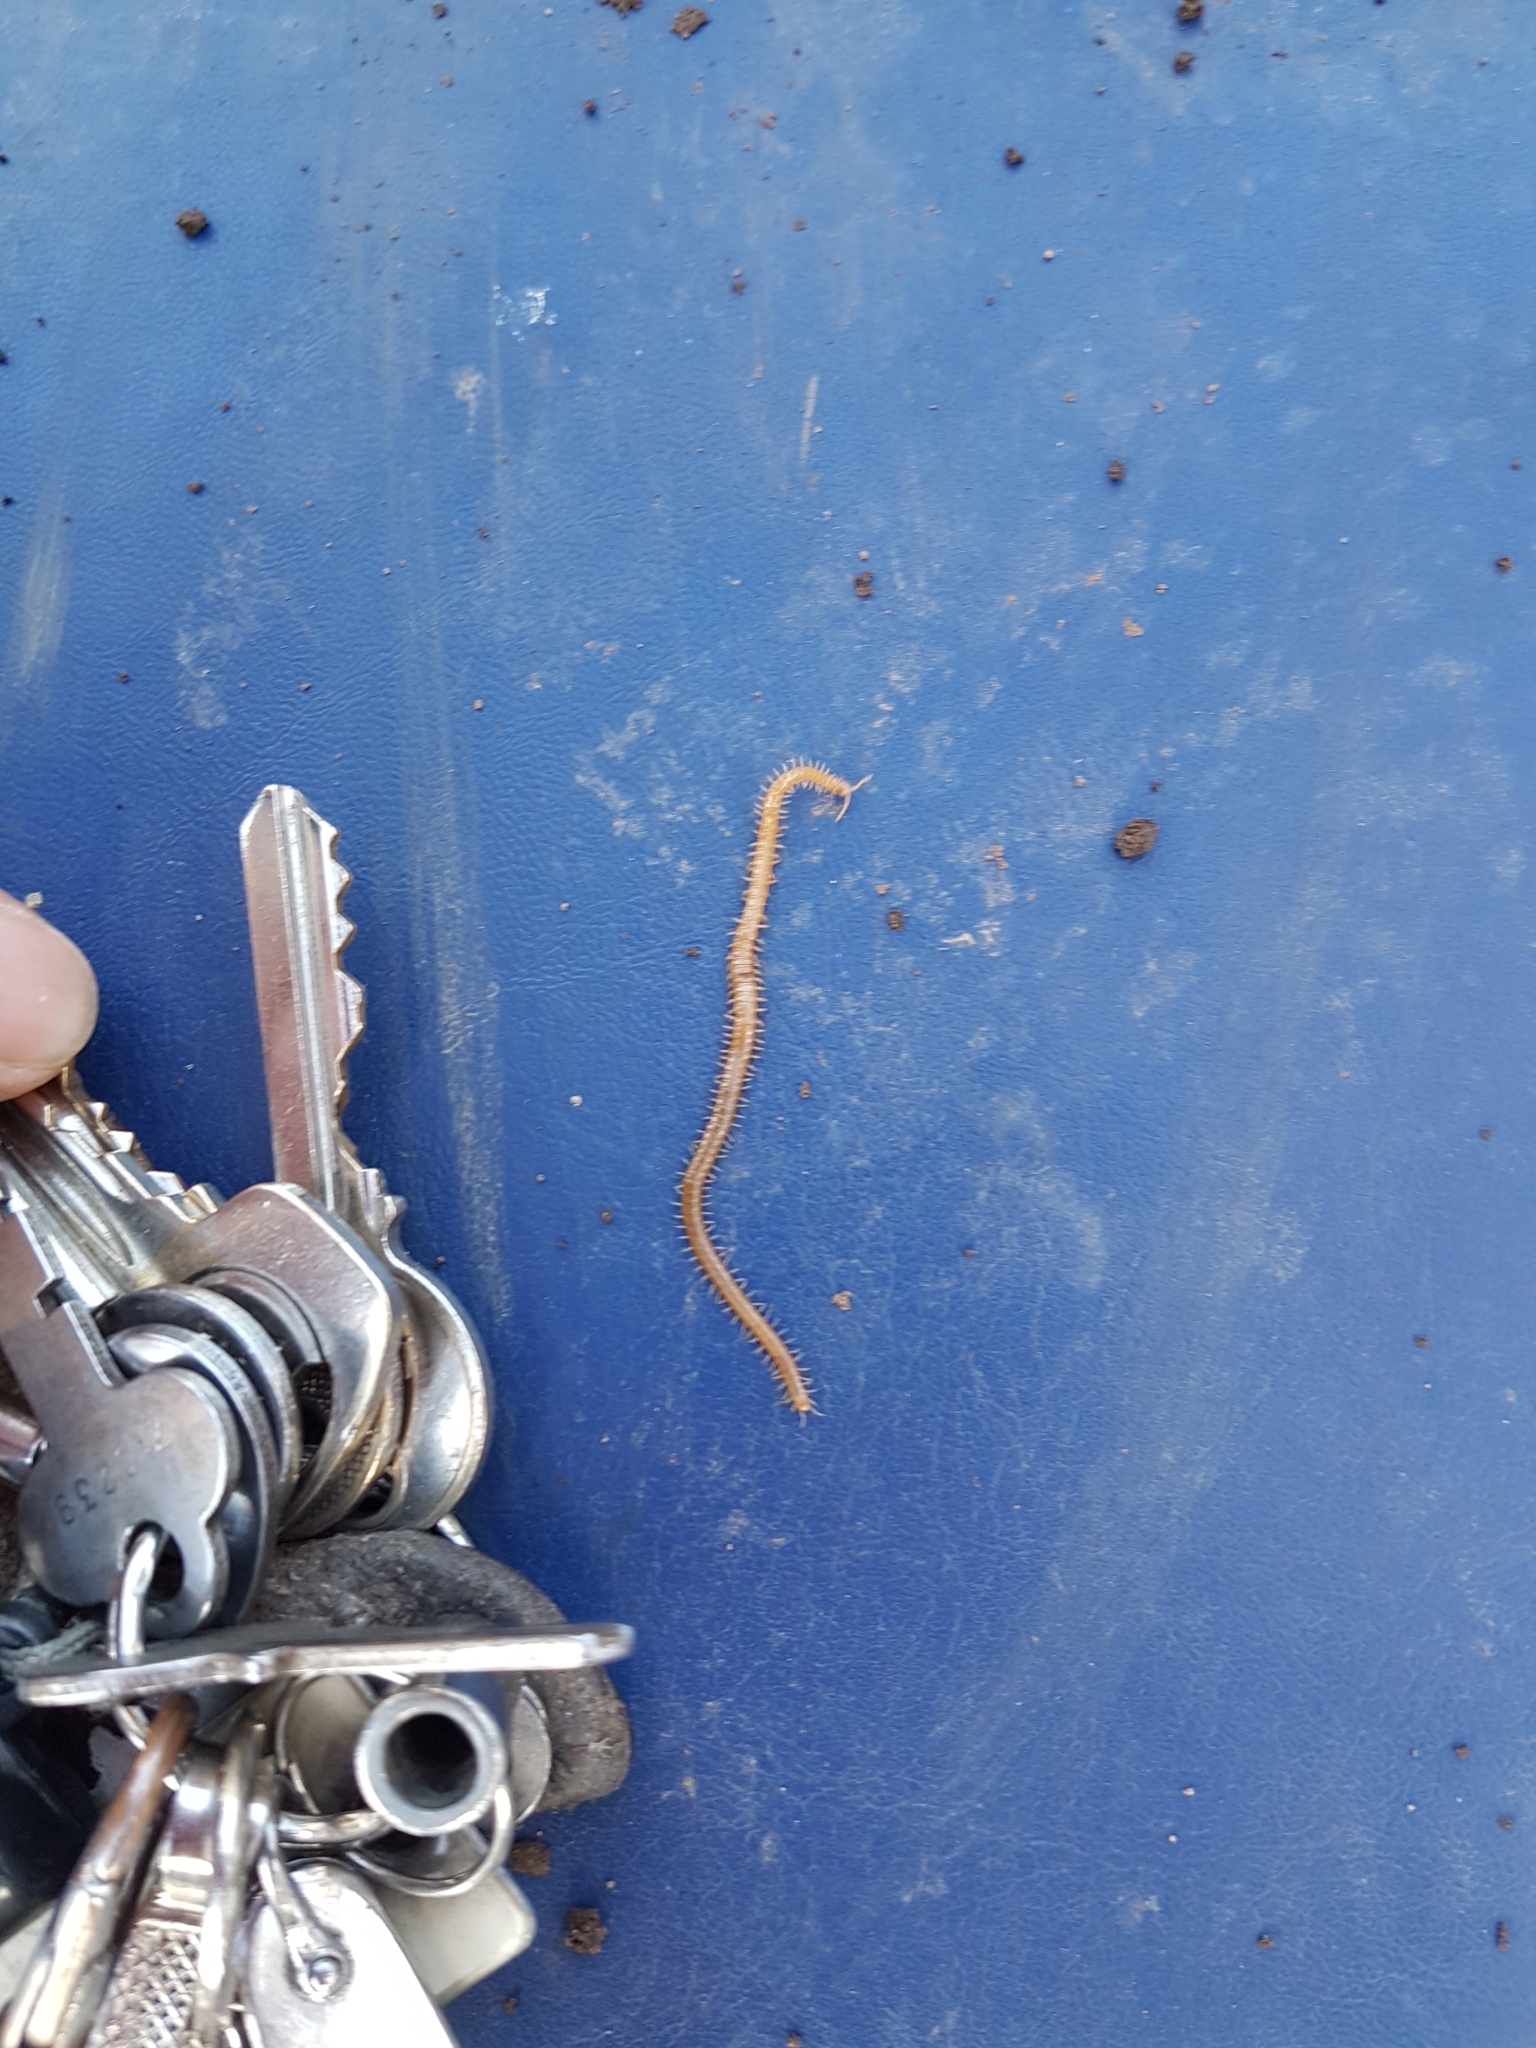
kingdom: Animalia
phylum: Arthropoda
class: Chilopoda
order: Geophilomorpha
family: Himantariidae
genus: Stigmatogaster
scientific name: Stigmatogaster subterranea
